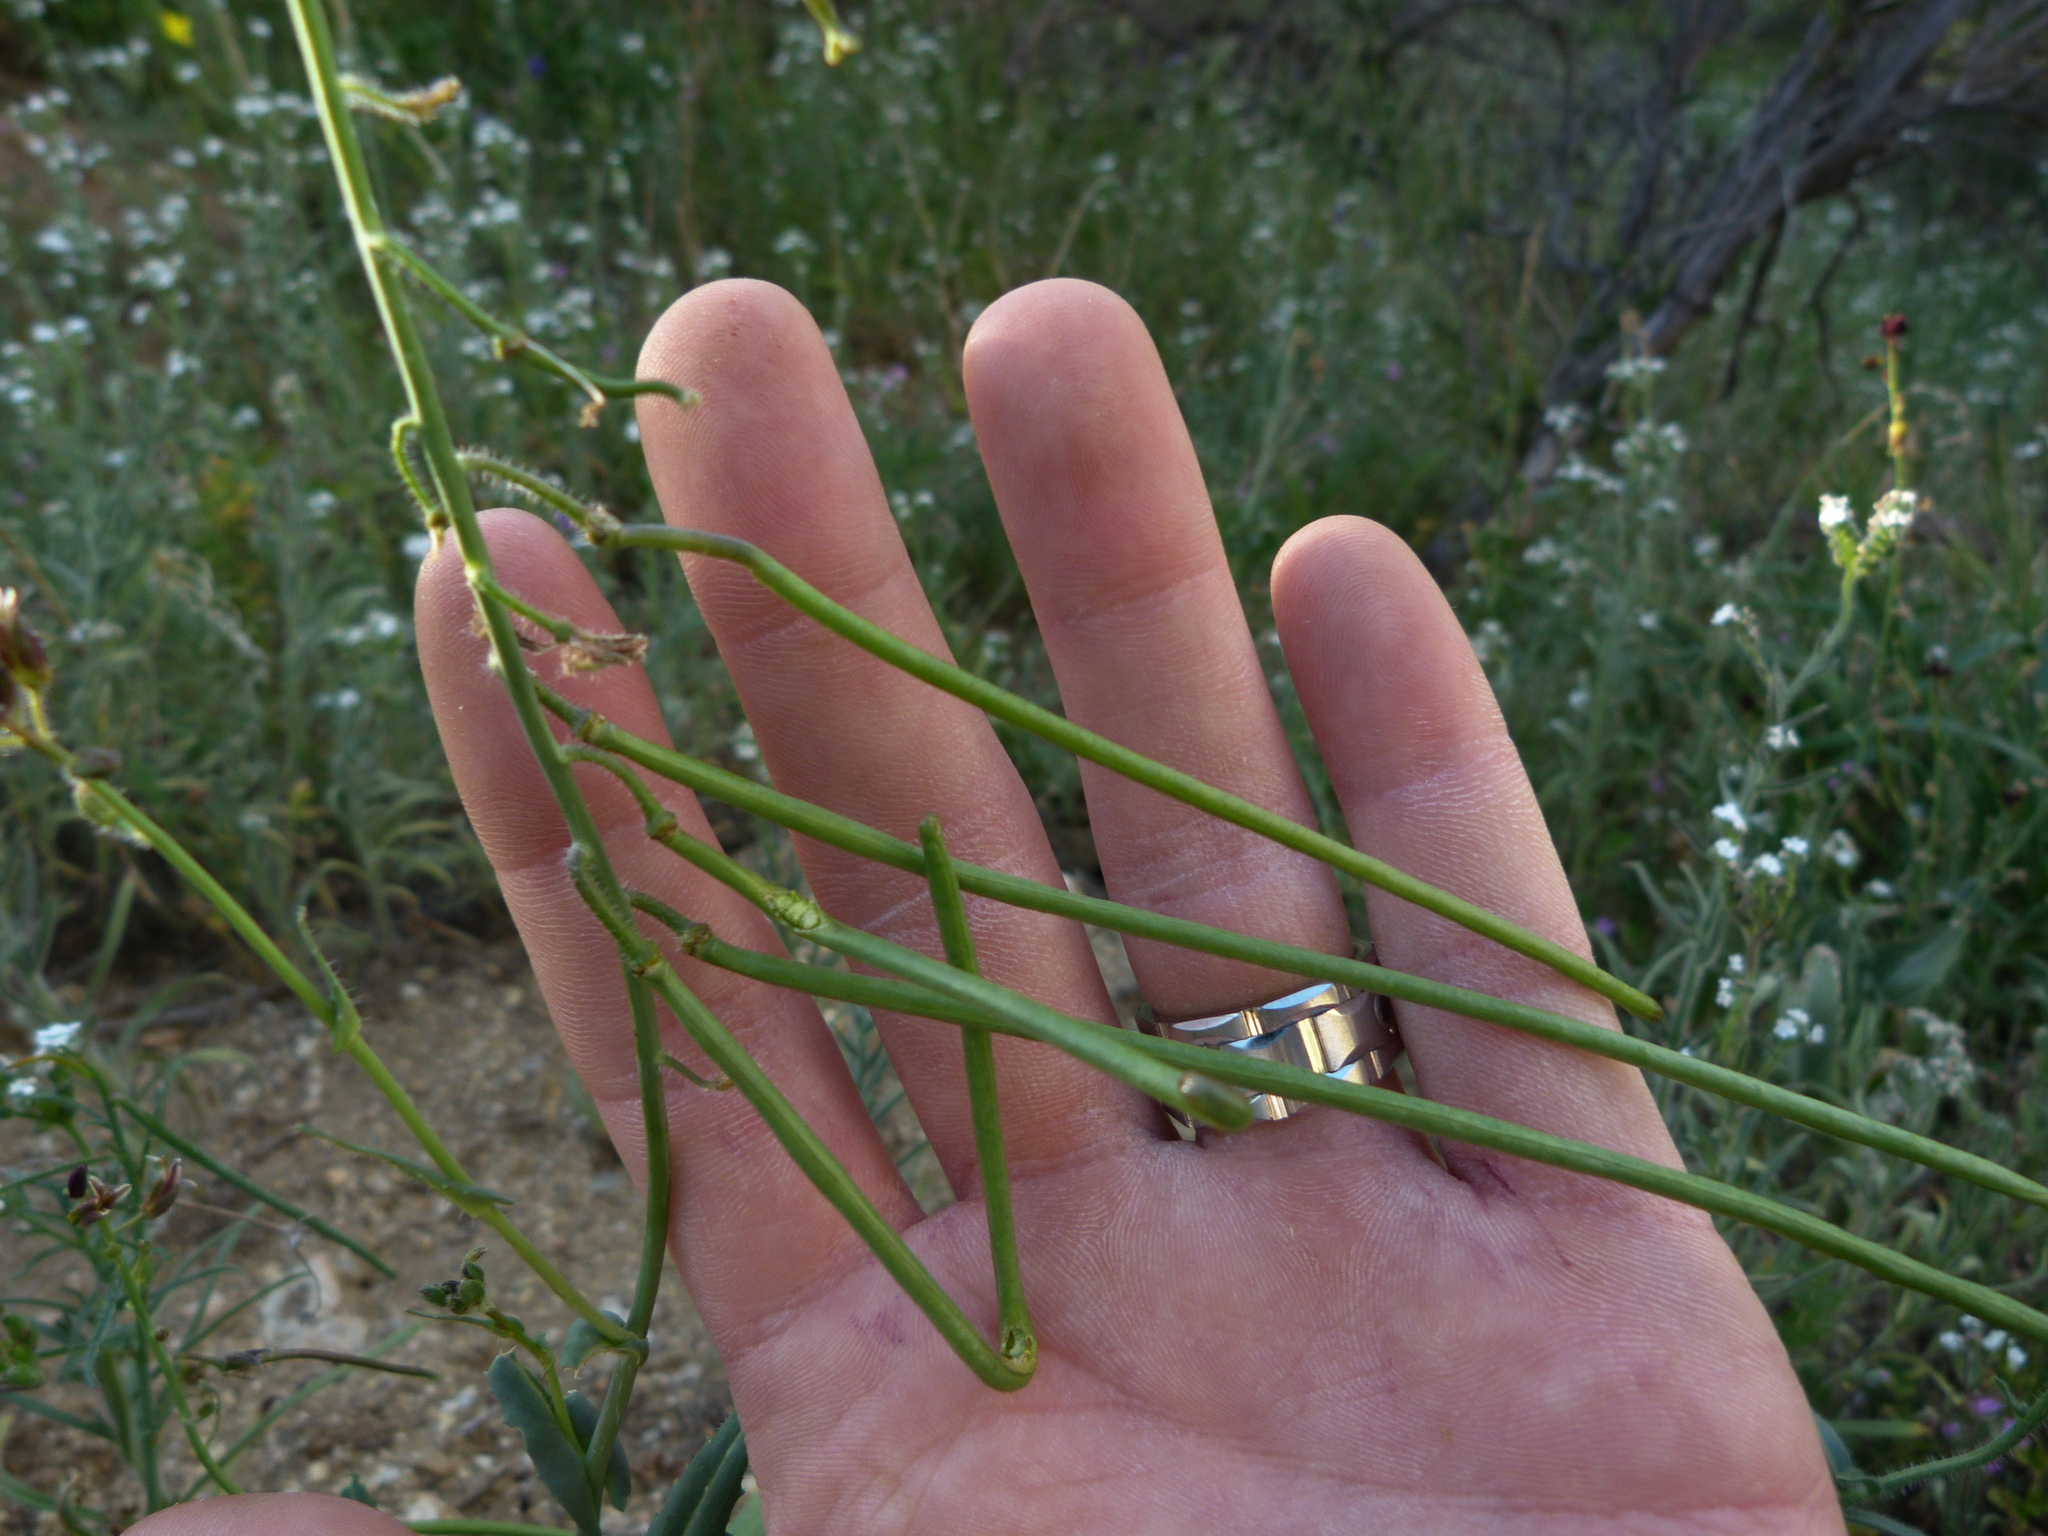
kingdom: Plantae
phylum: Tracheophyta
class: Magnoliopsida
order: Brassicales
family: Brassicaceae
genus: Streptanthus
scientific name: Streptanthus coulteri
